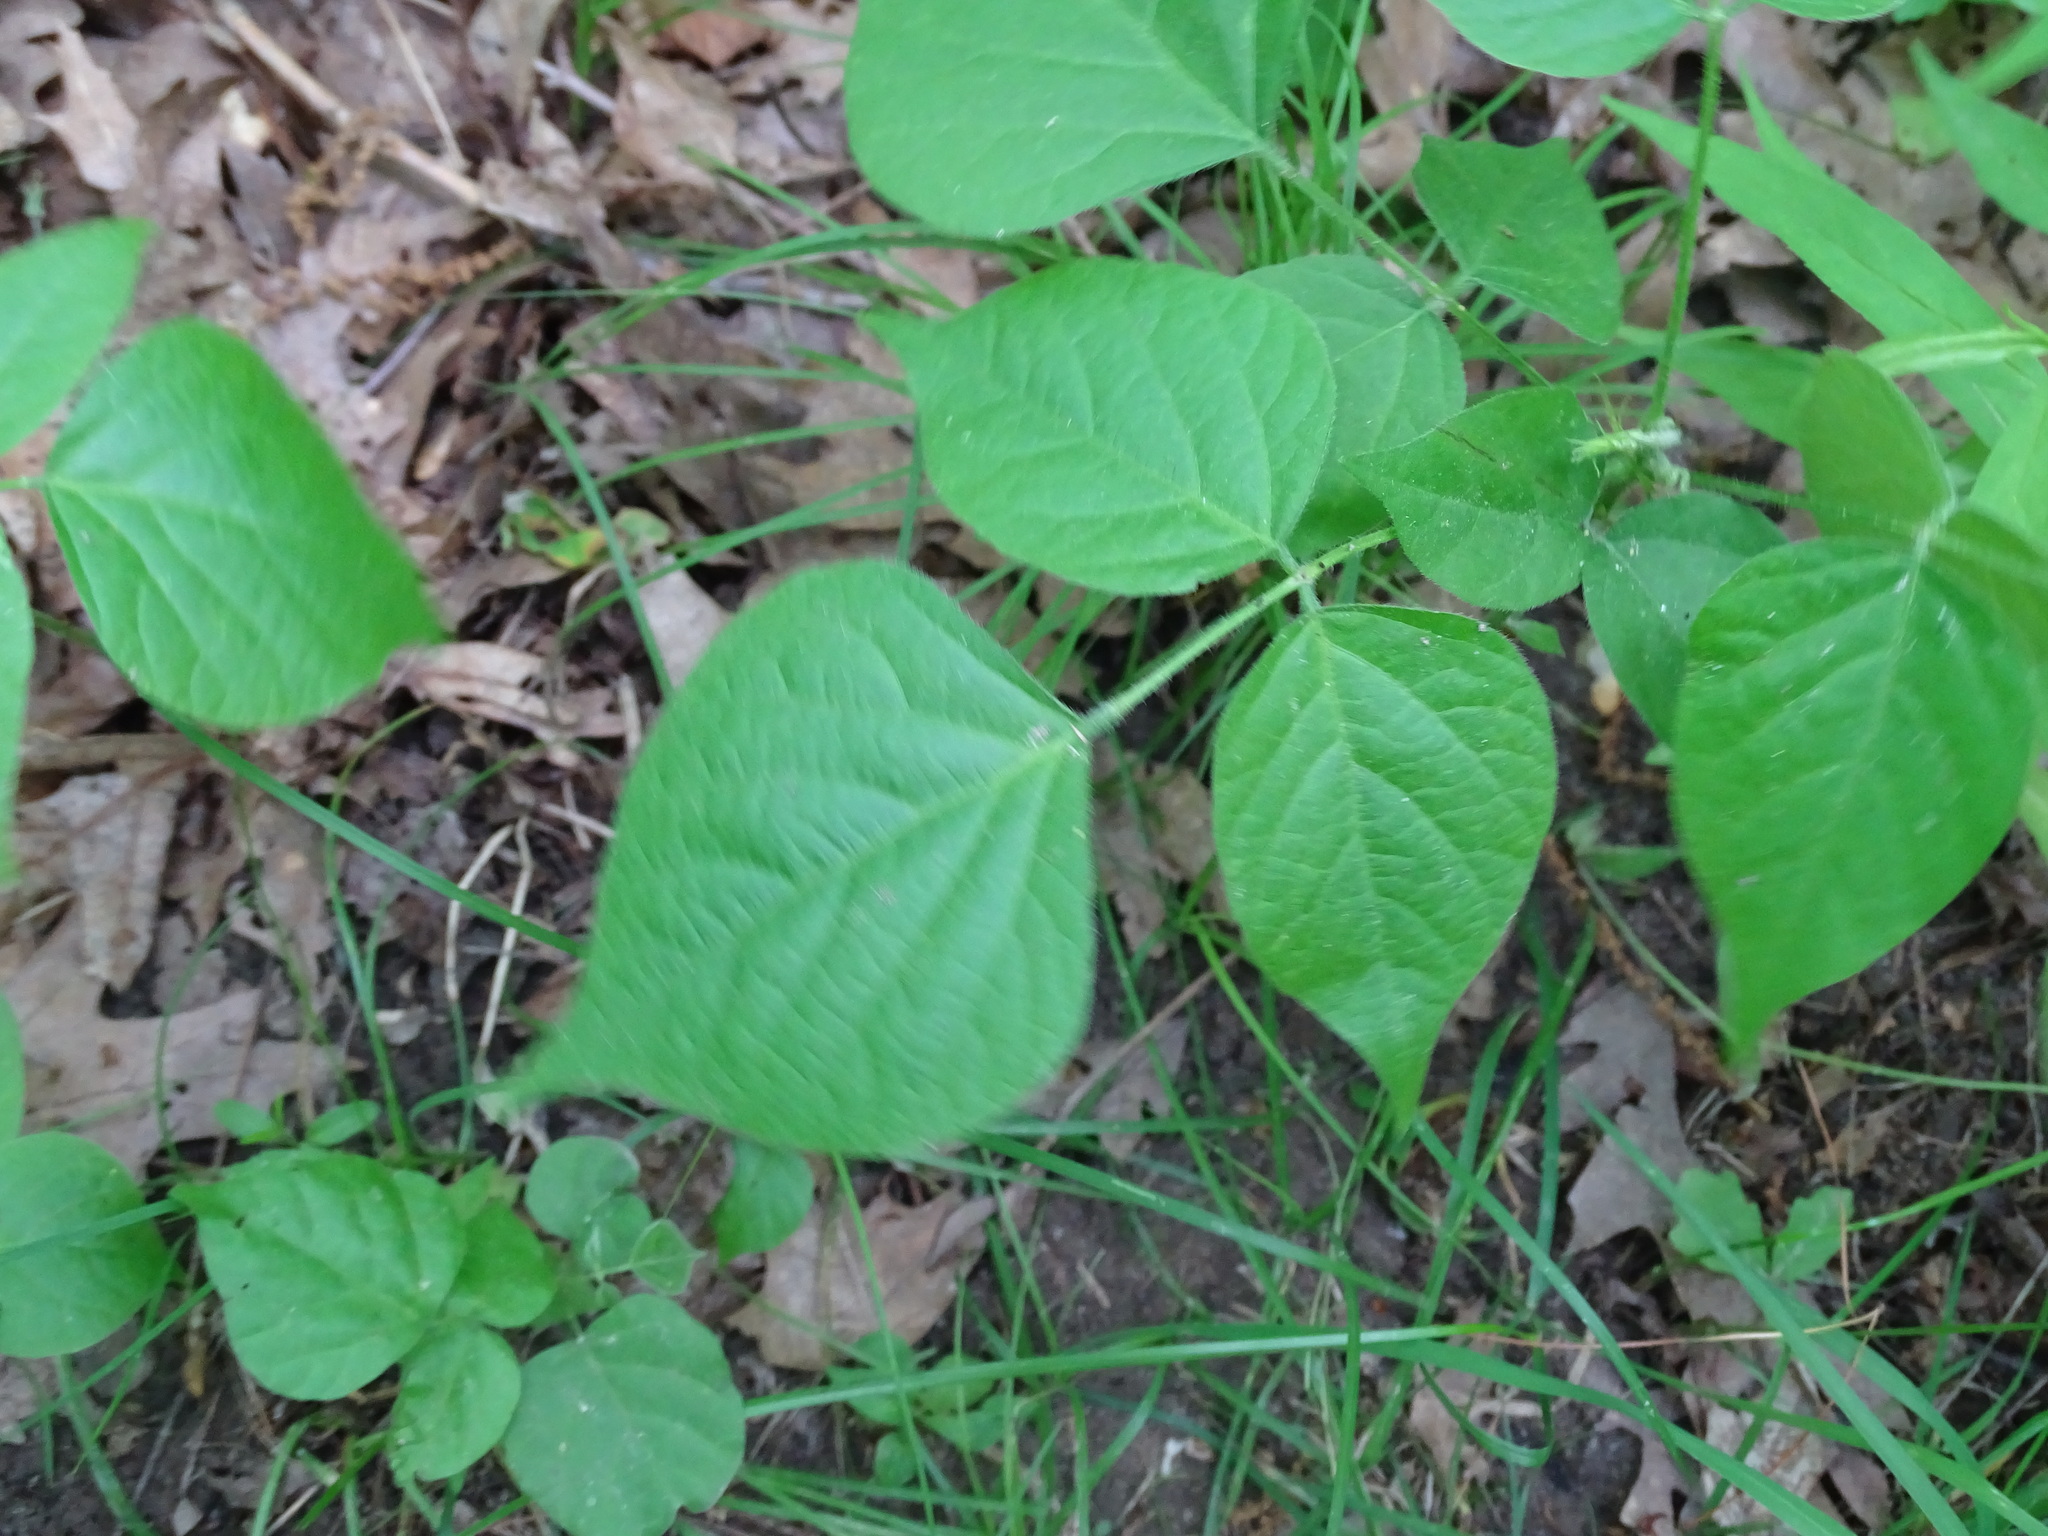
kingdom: Plantae
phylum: Tracheophyta
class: Magnoliopsida
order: Fabales
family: Fabaceae
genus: Hylodesmum
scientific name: Hylodesmum glutinosum
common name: Clustered-leaved tick-trefoil
